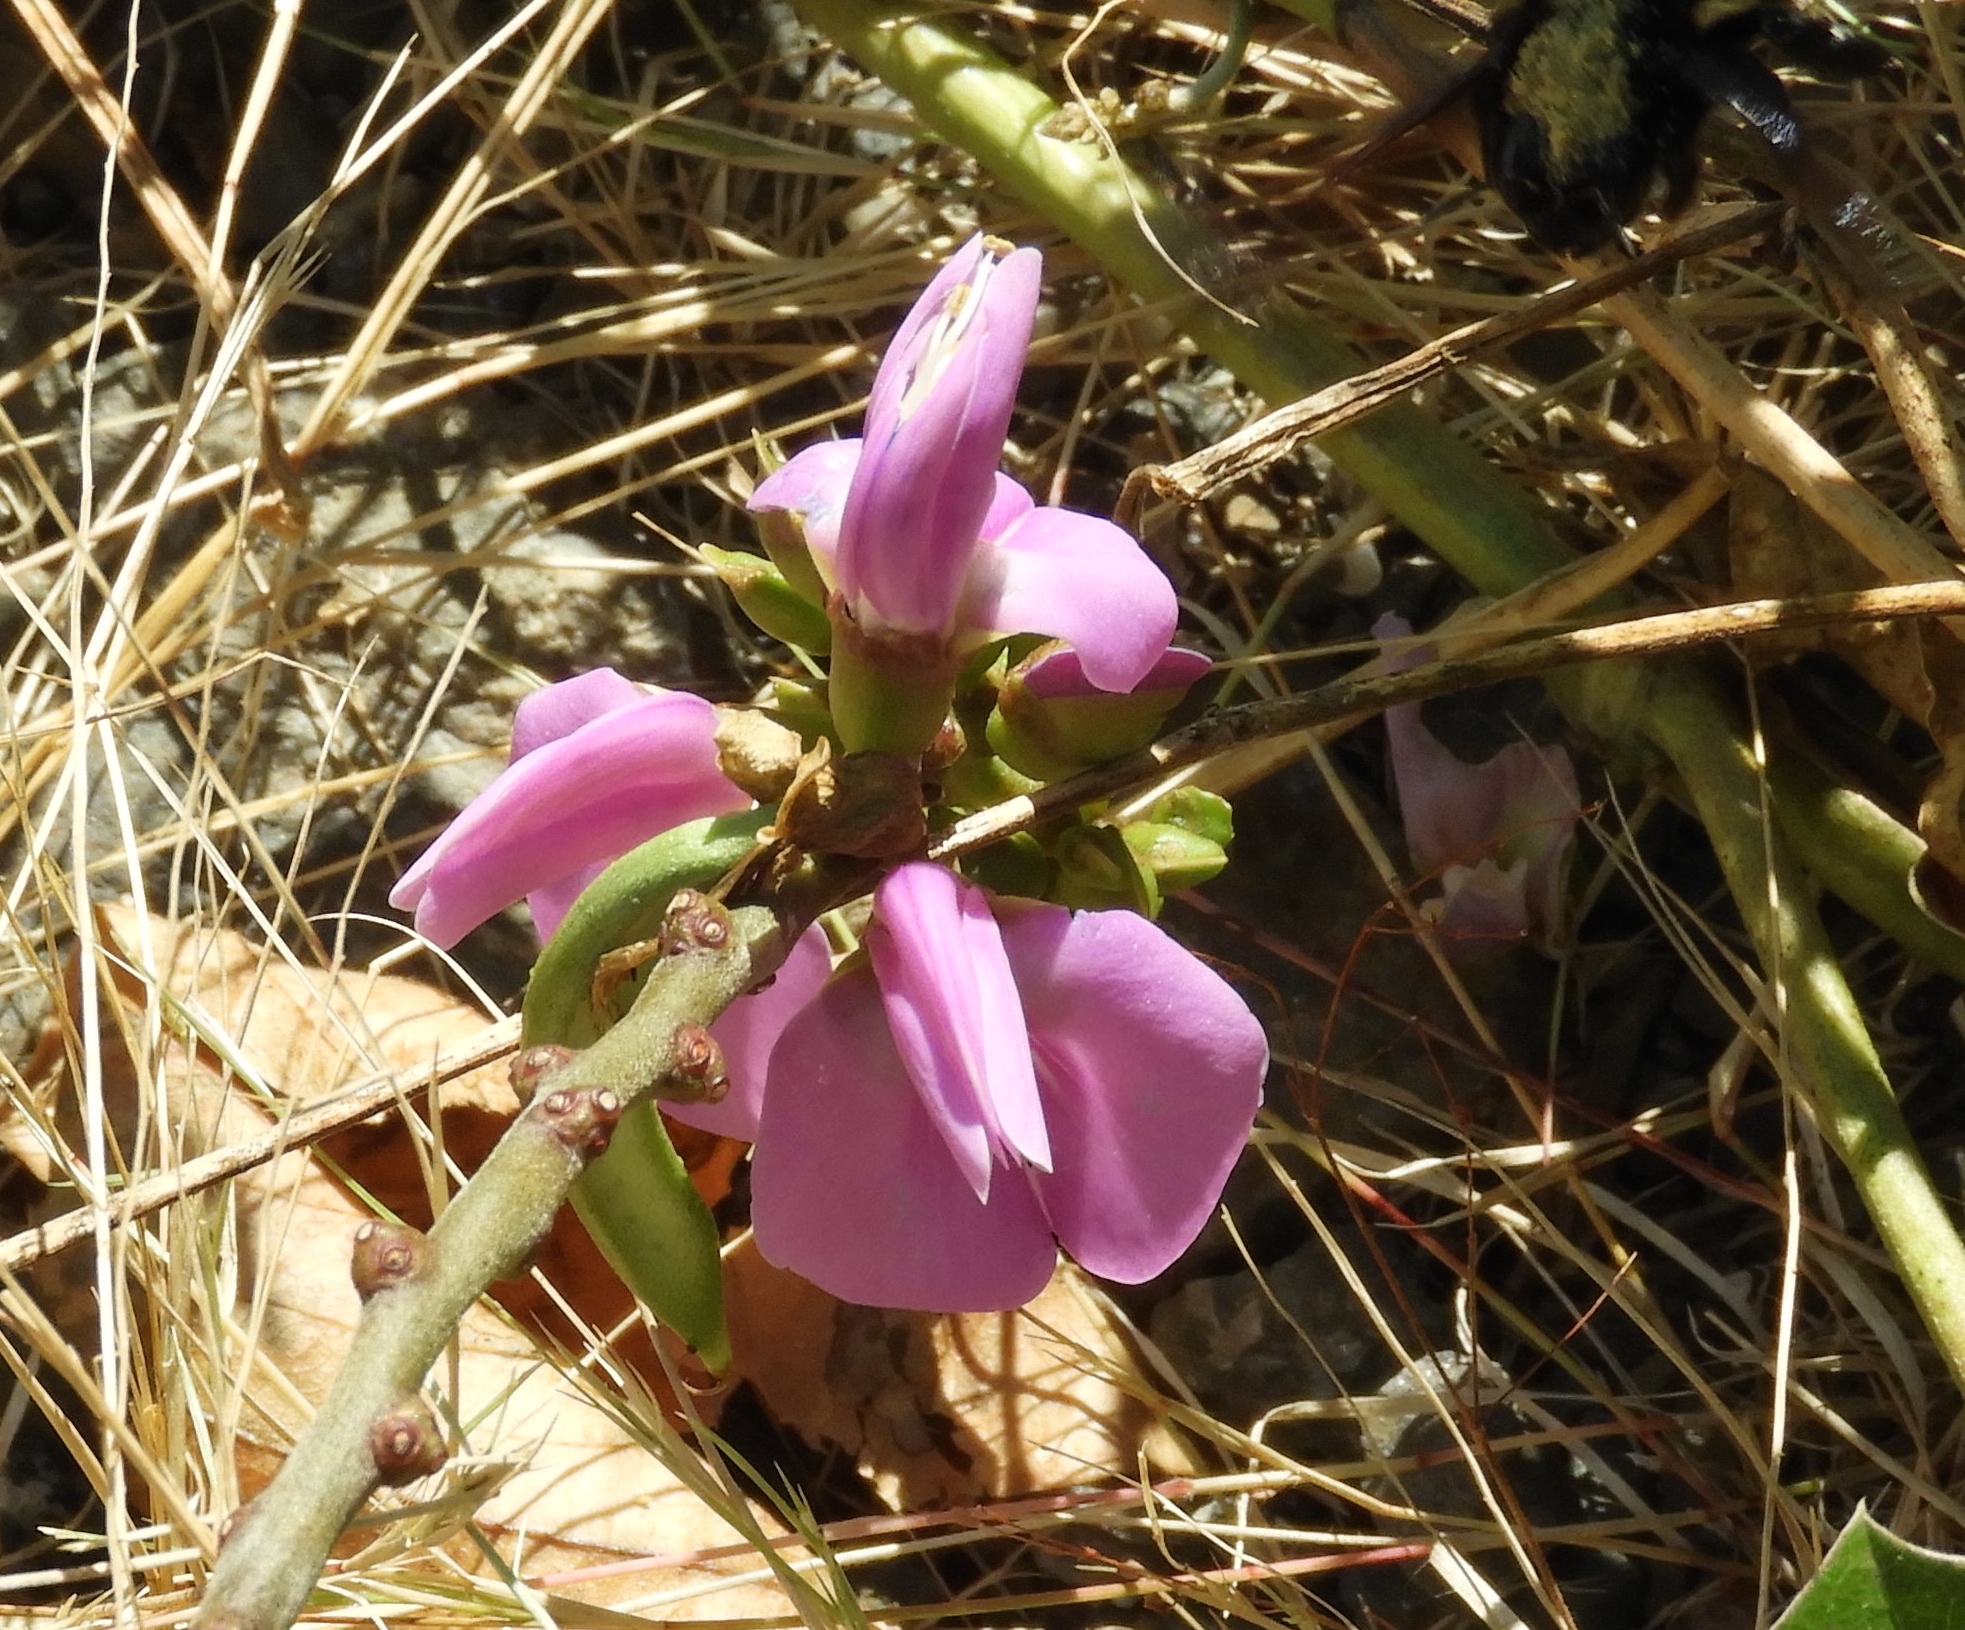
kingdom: Plantae
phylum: Tracheophyta
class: Magnoliopsida
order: Fabales
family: Fabaceae
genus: Canavalia
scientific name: Canavalia rosea
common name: Beach-bean
